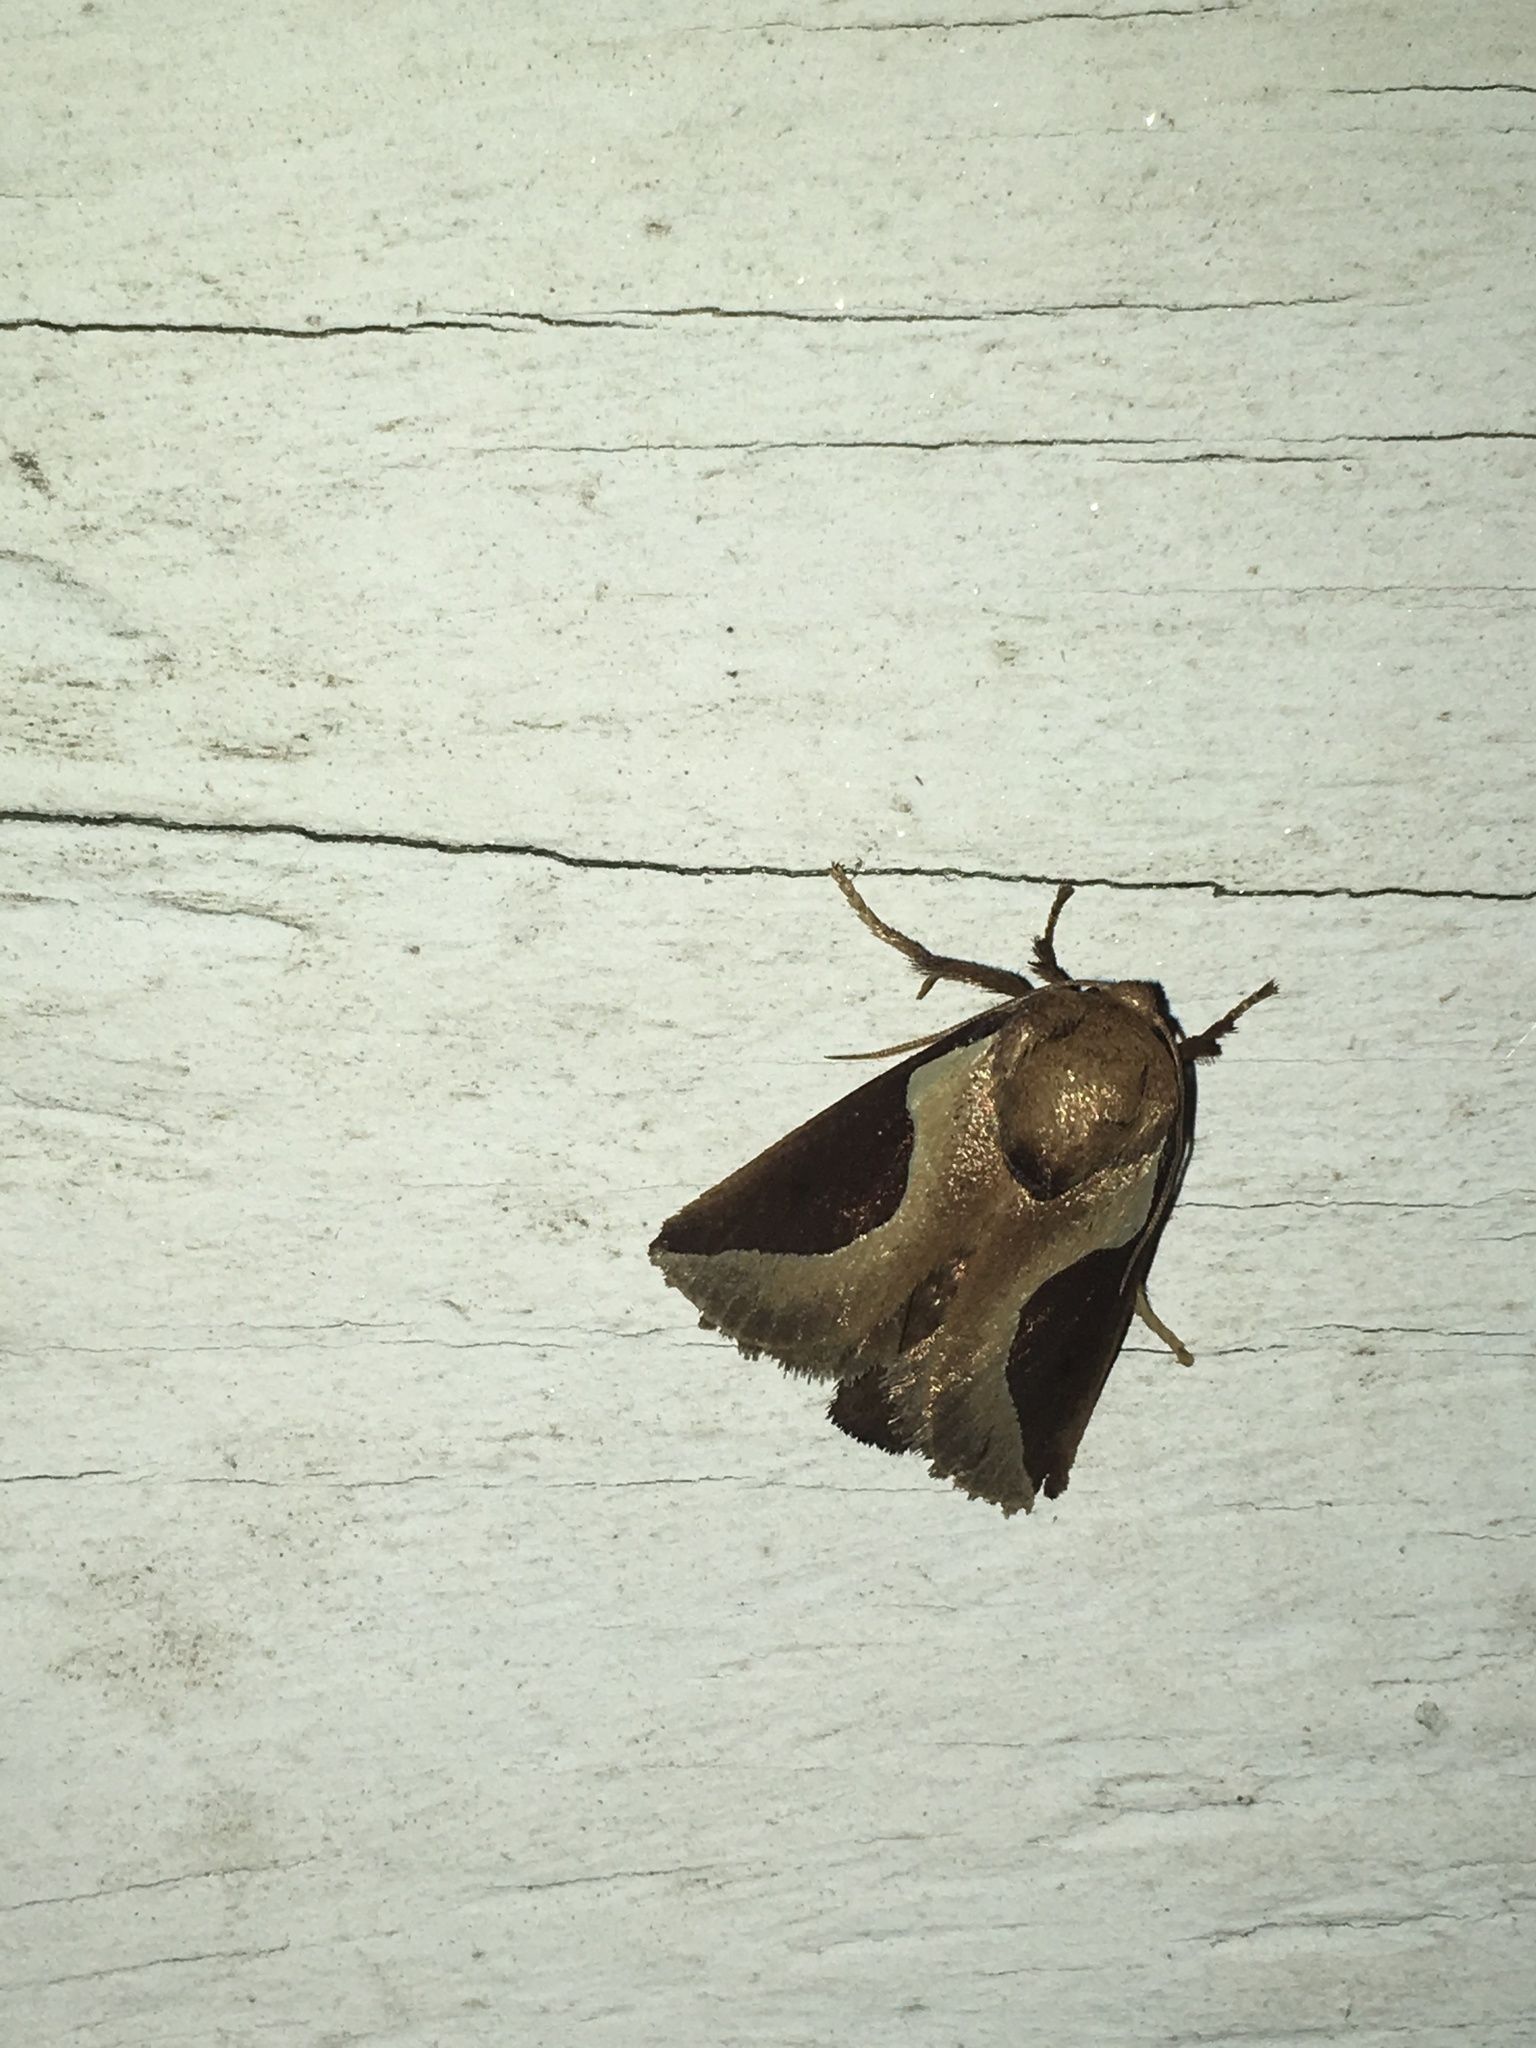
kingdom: Animalia
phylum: Arthropoda
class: Insecta
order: Lepidoptera
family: Limacodidae
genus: Prolimacodes
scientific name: Prolimacodes badia
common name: Skiff moth
